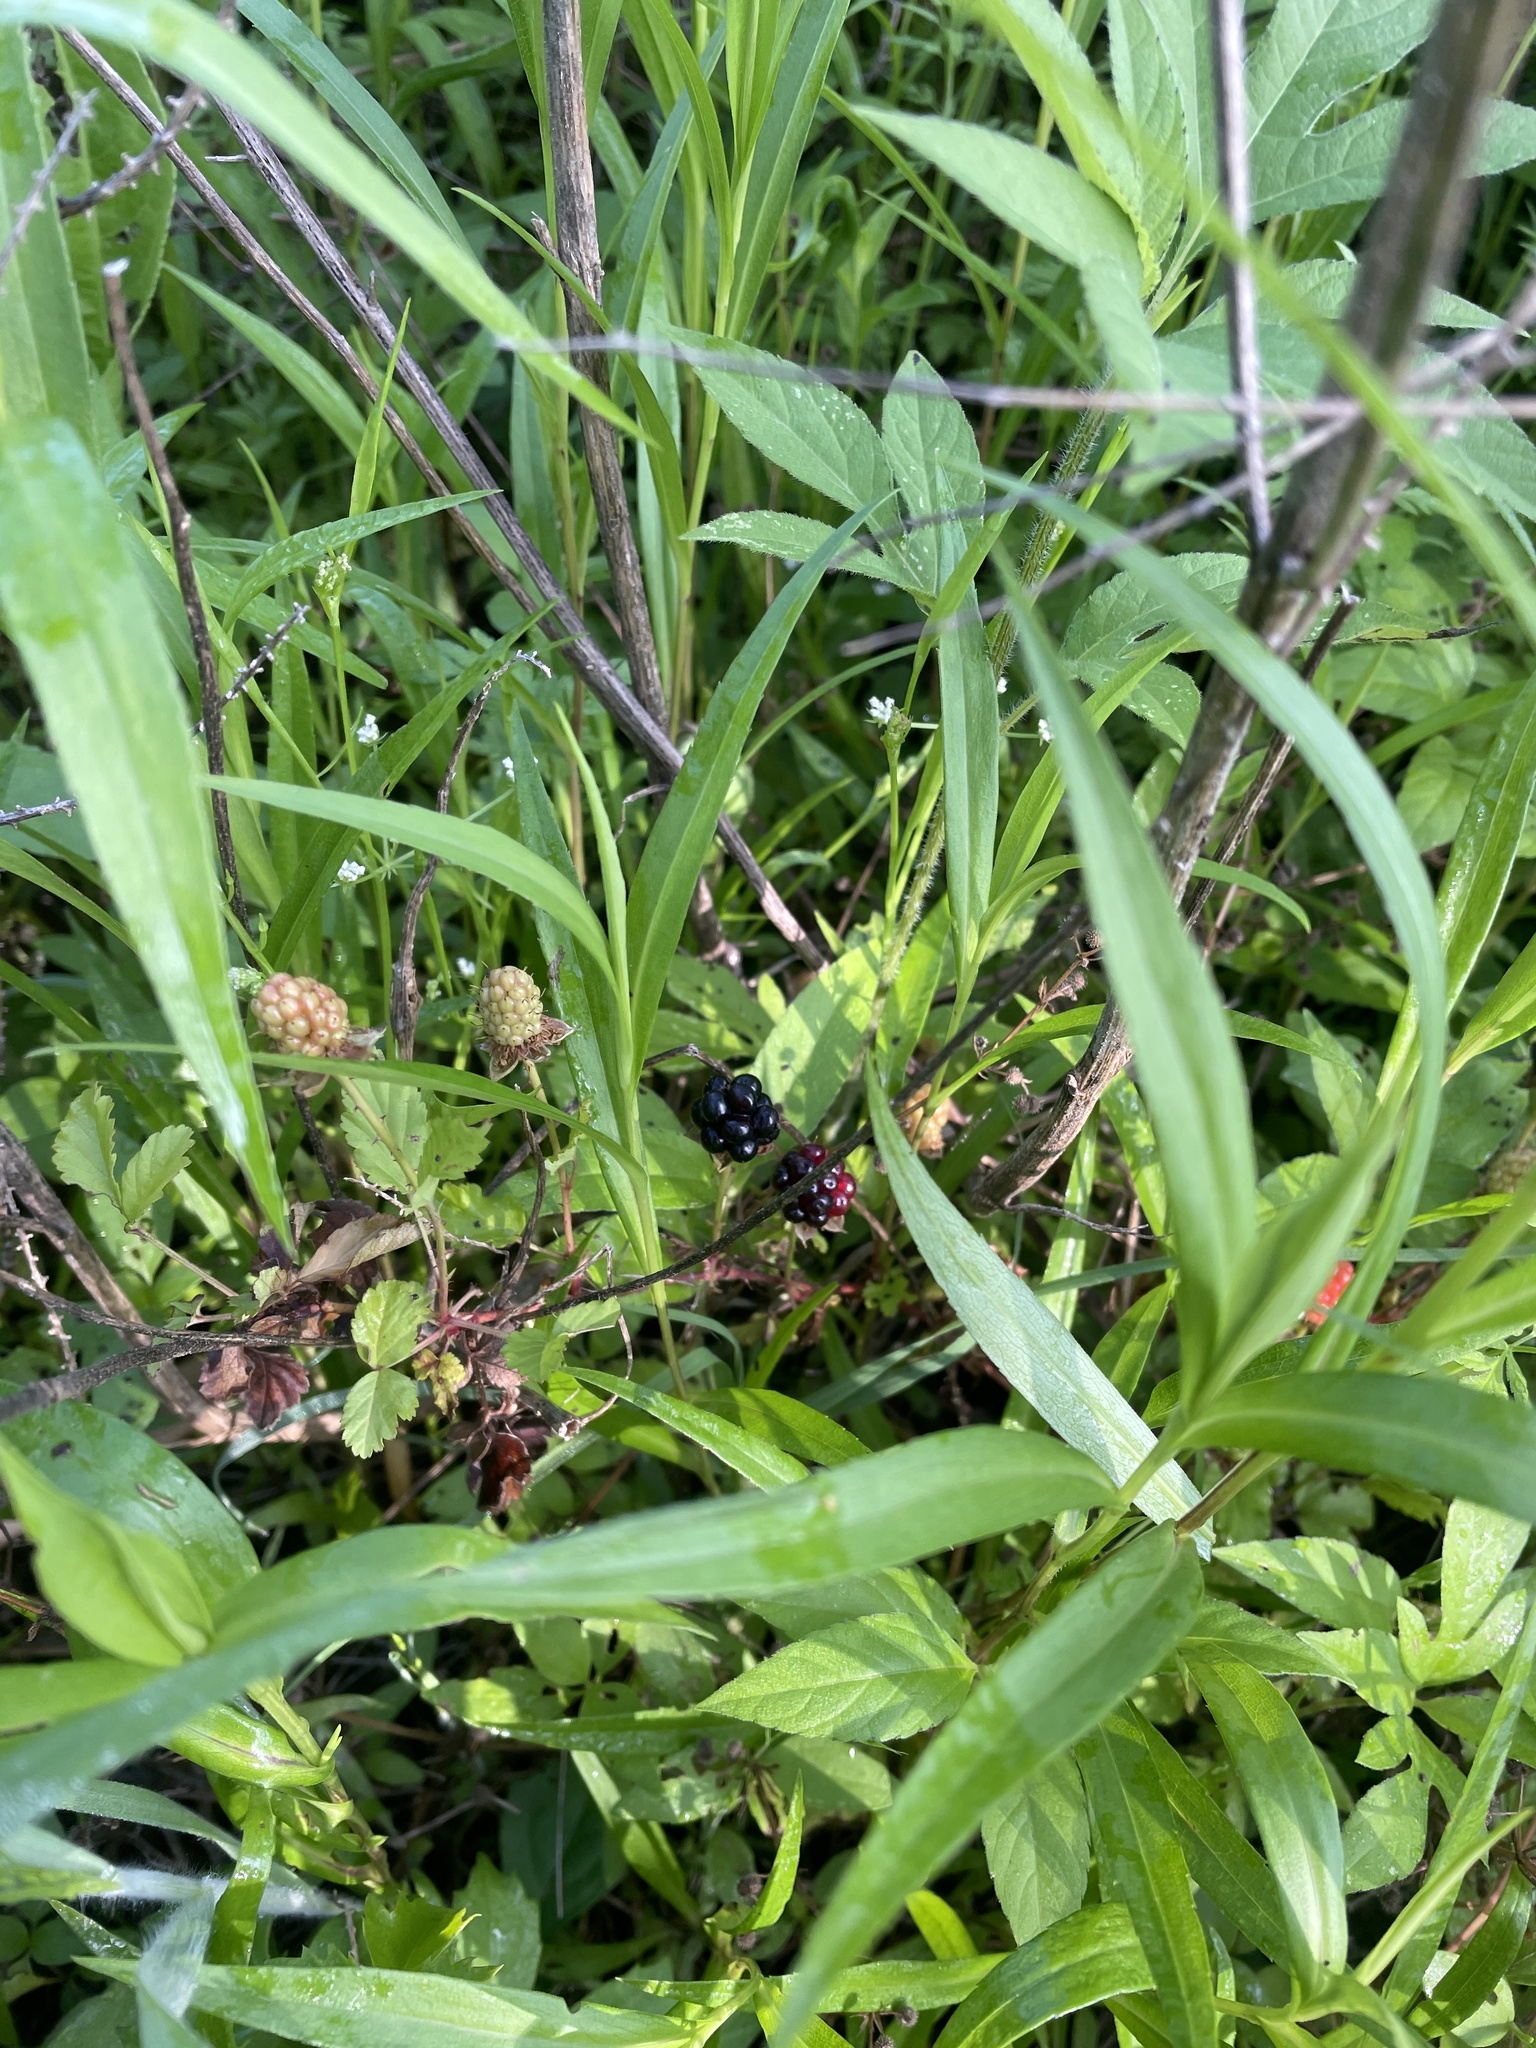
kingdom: Plantae
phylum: Tracheophyta
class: Magnoliopsida
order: Rosales
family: Rosaceae
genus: Rubus
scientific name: Rubus trivialis
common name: Southern dewberry
